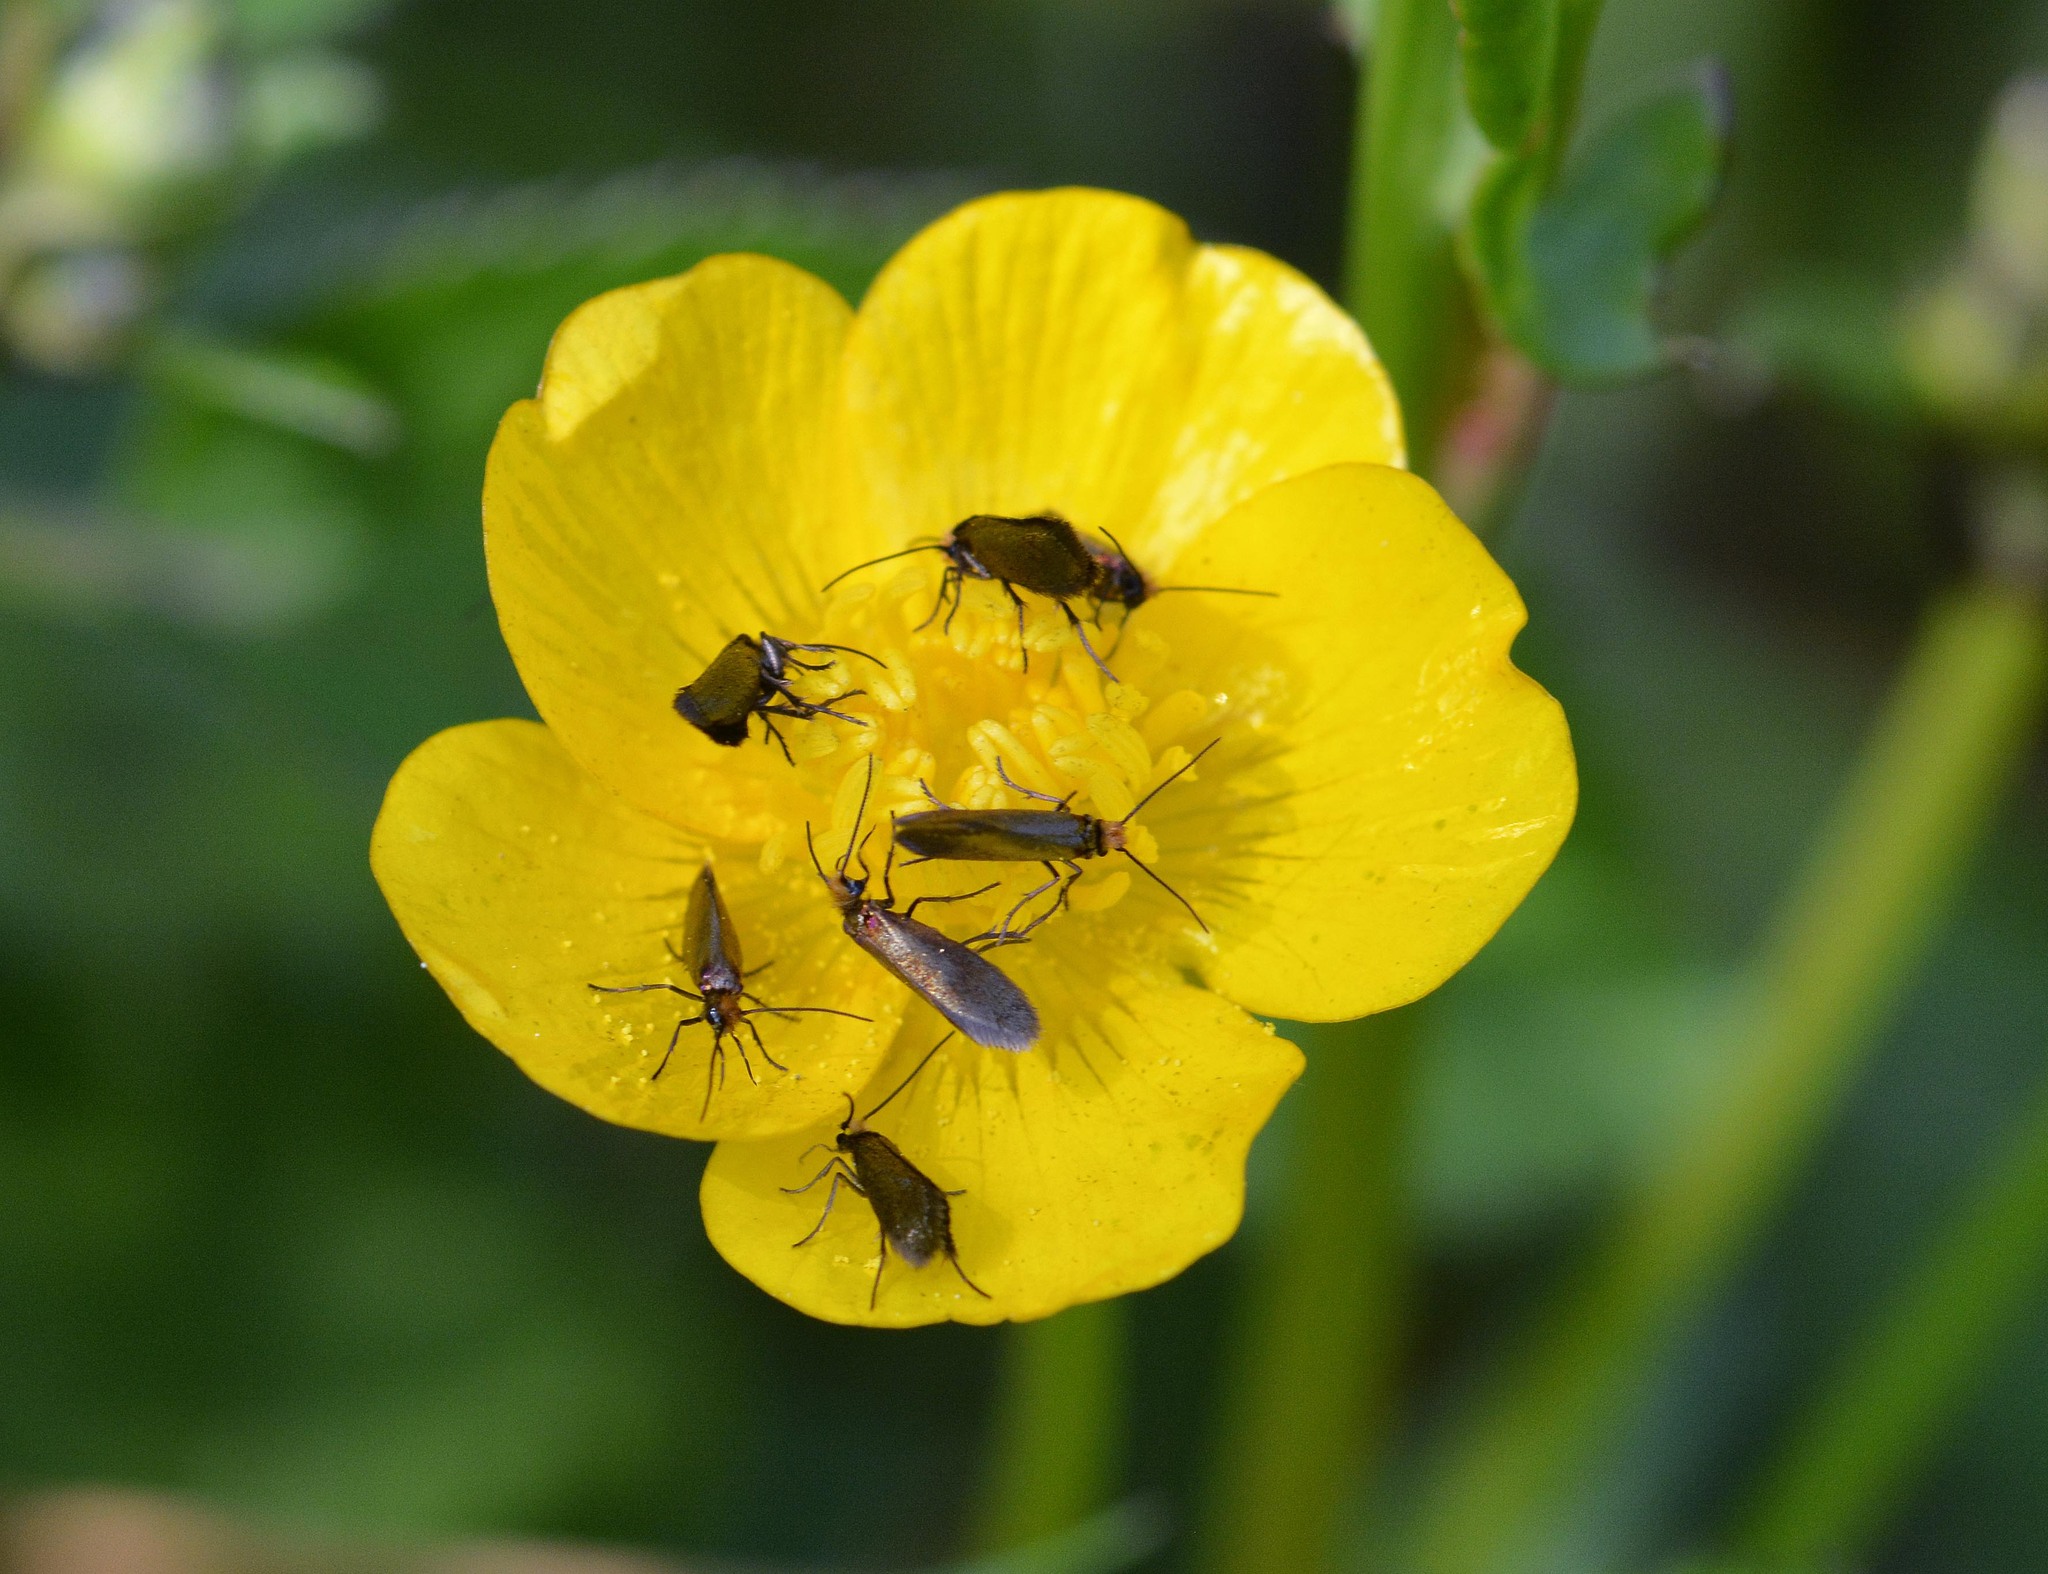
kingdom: Animalia
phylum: Arthropoda
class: Insecta
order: Lepidoptera
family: Micropterigidae
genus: Micropterix
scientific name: Micropterix calthella
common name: Plain gold
